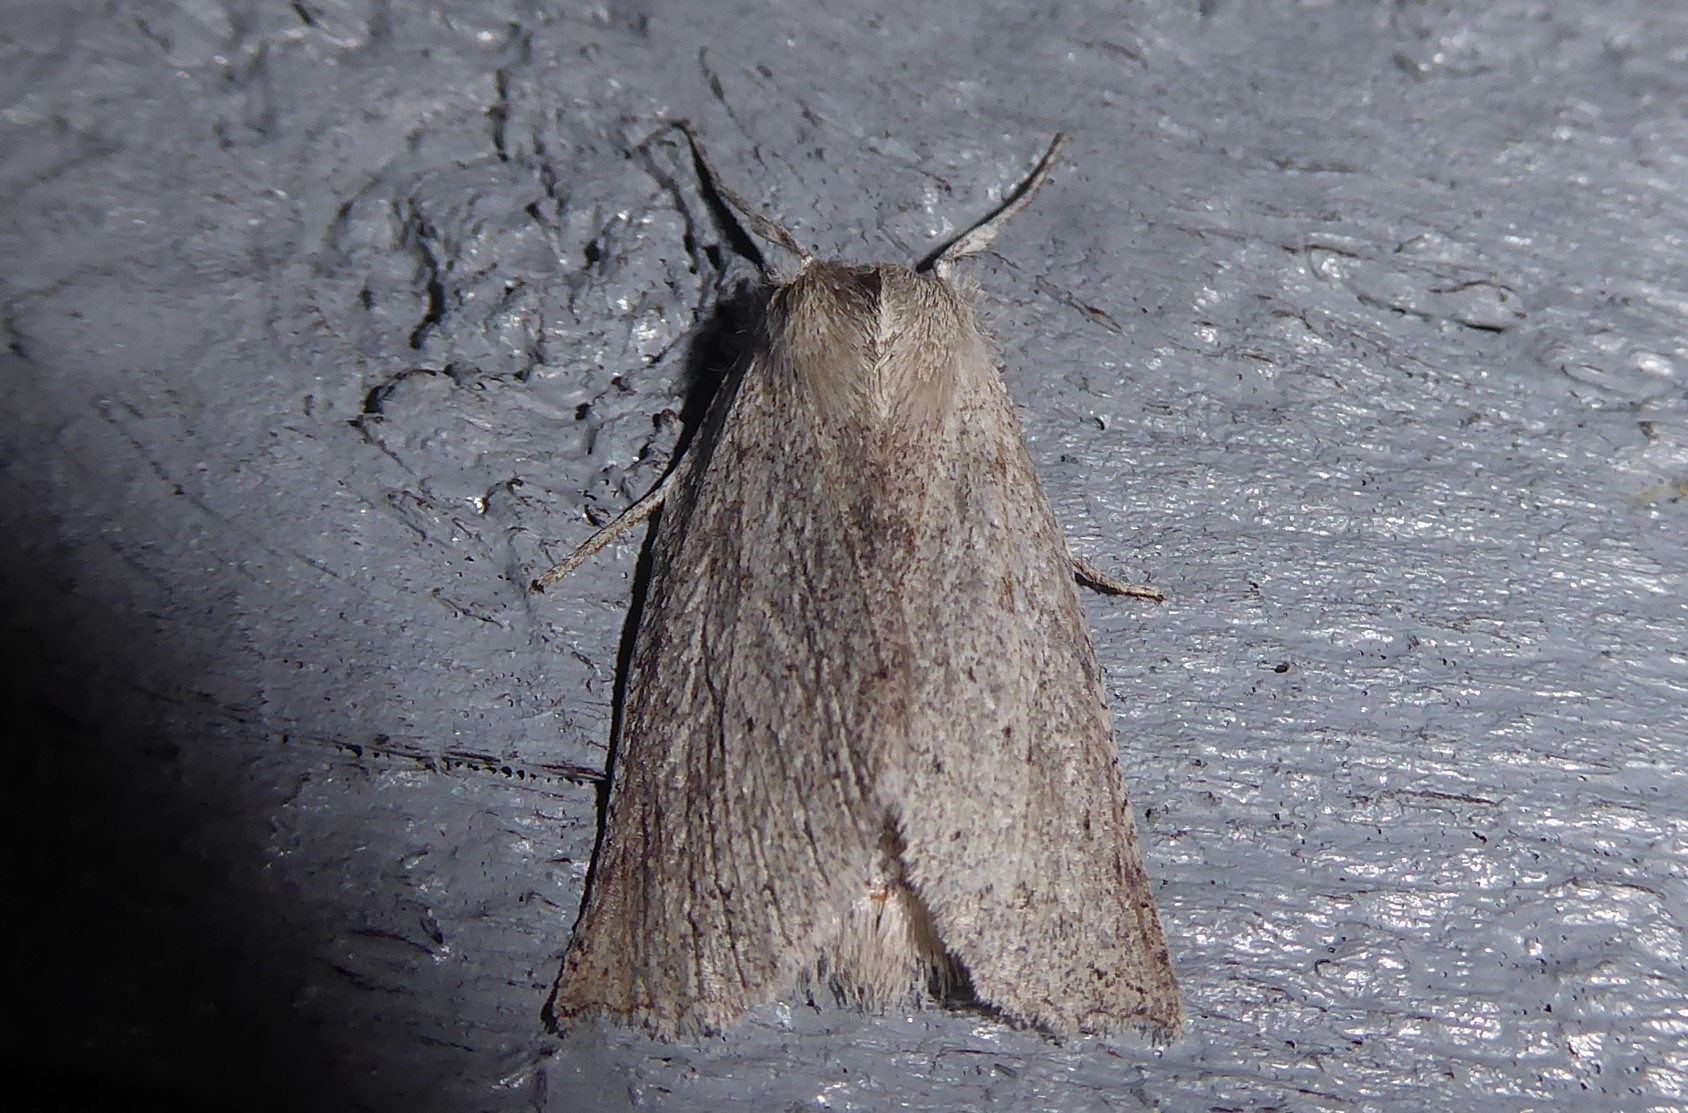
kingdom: Animalia
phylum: Arthropoda
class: Insecta
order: Lepidoptera
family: Geometridae
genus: Declana
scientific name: Declana leptomera
